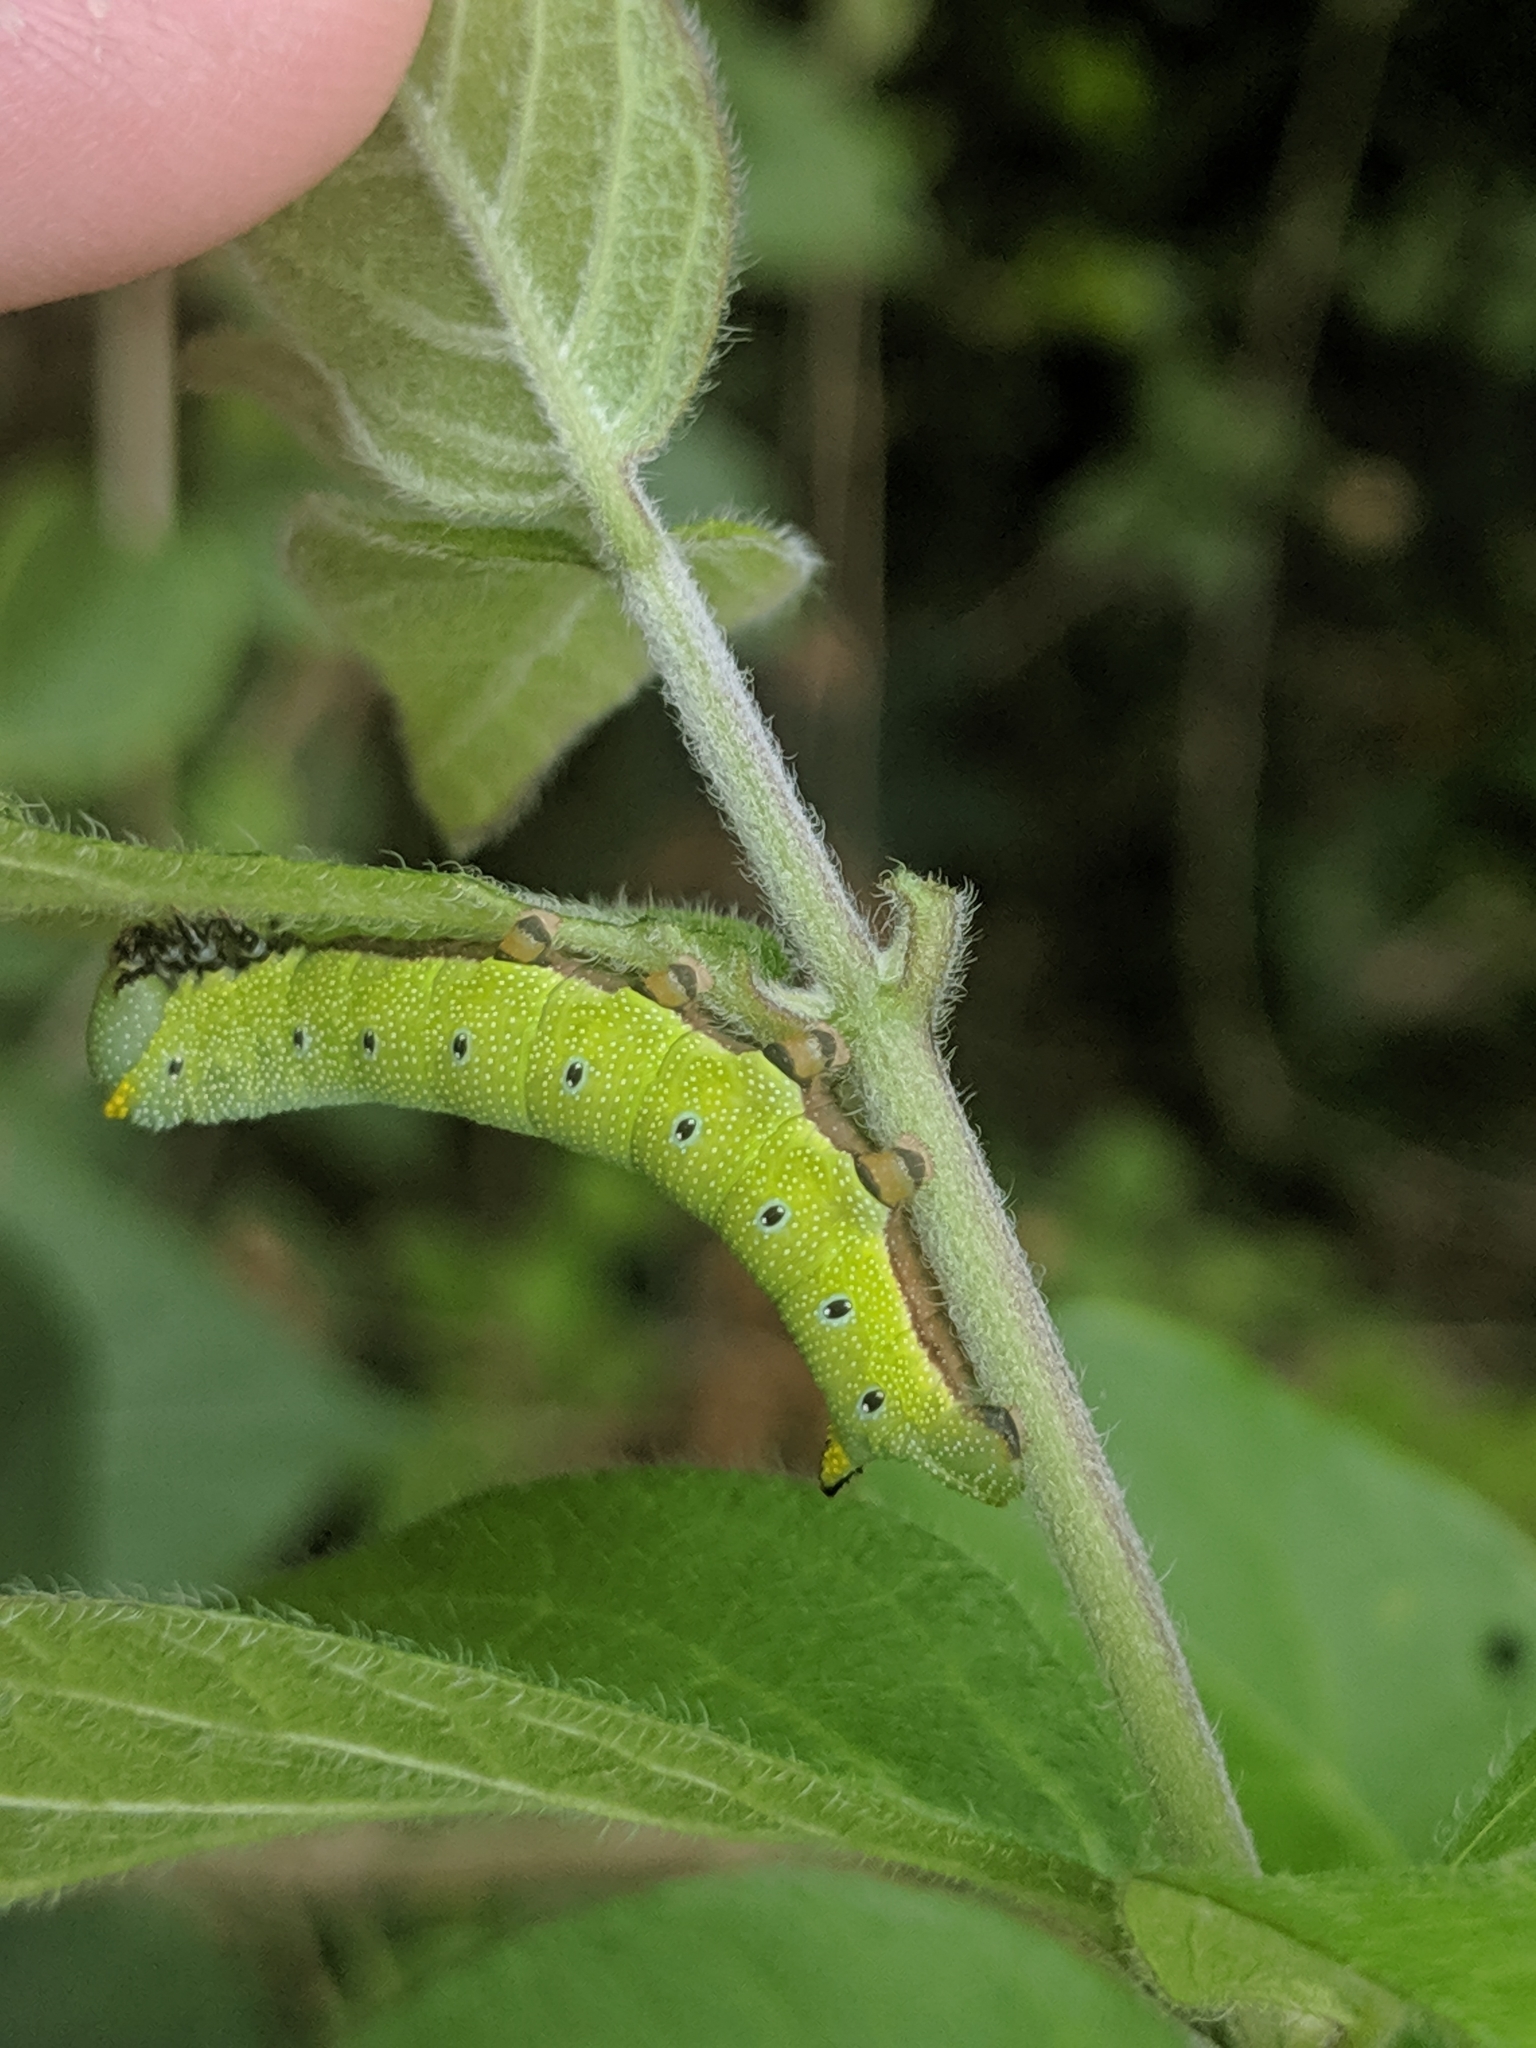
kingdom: Animalia
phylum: Arthropoda
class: Insecta
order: Lepidoptera
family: Sphingidae
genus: Hemaris
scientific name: Hemaris diffinis
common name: Bumblebee moth
